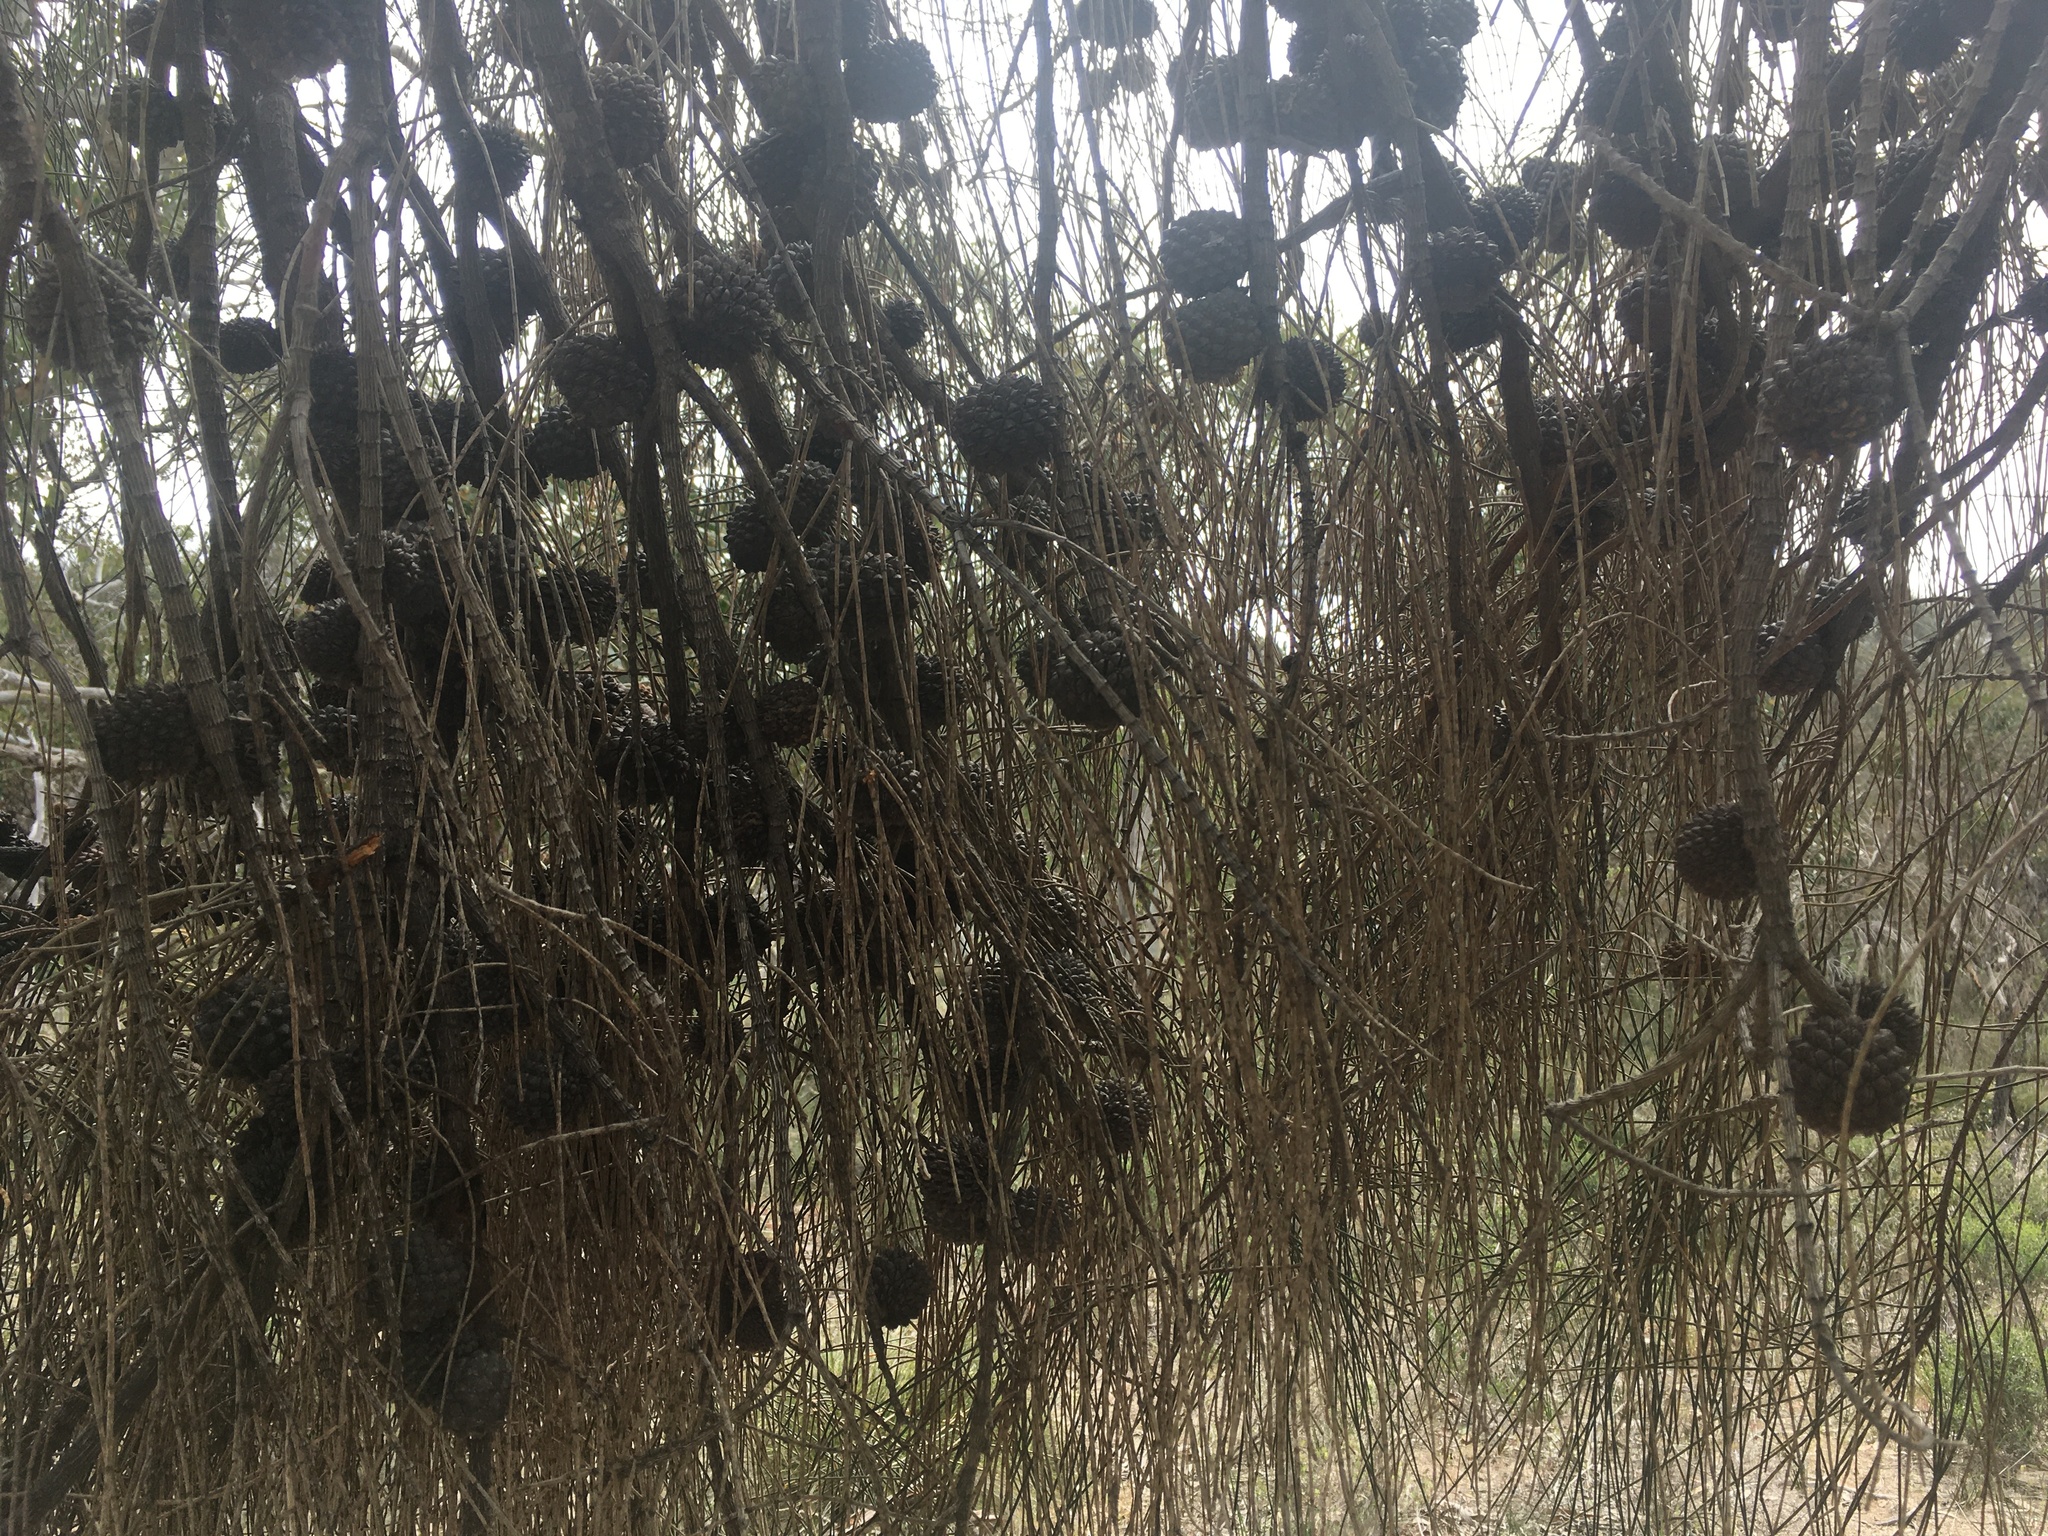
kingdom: Plantae
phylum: Tracheophyta
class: Magnoliopsida
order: Fagales
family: Casuarinaceae
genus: Allocasuarina
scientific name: Allocasuarina verticillata
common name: Drooping she-oak
